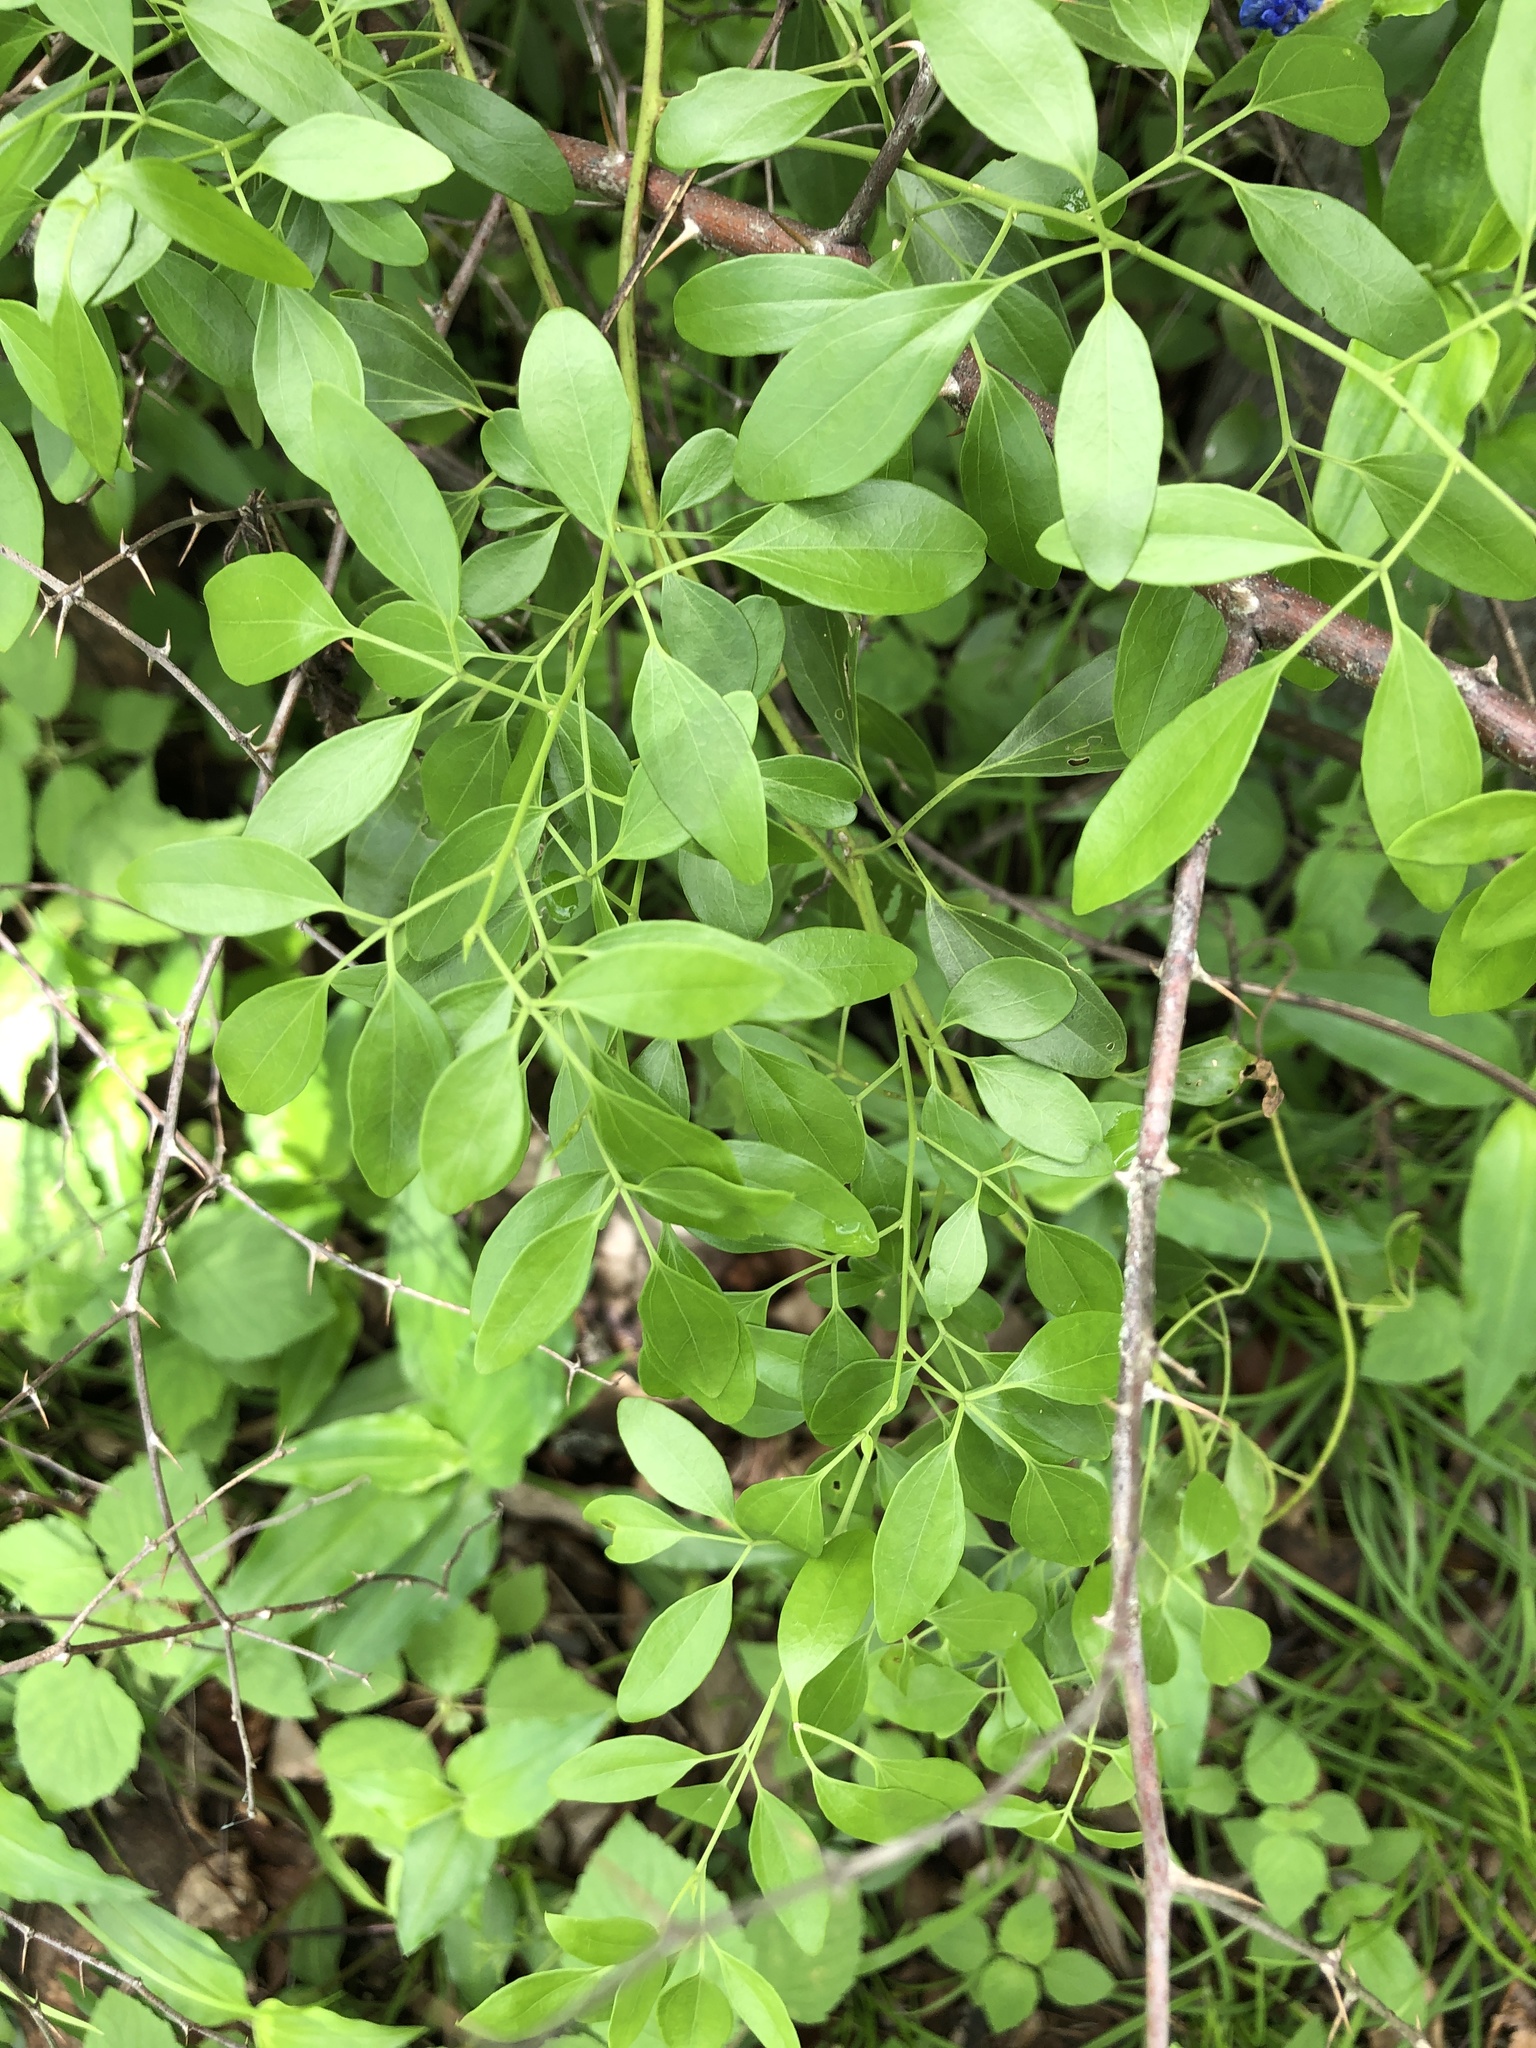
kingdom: Plantae
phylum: Tracheophyta
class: Magnoliopsida
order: Lamiales
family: Oleaceae
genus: Jasminum
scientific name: Jasminum didymum
